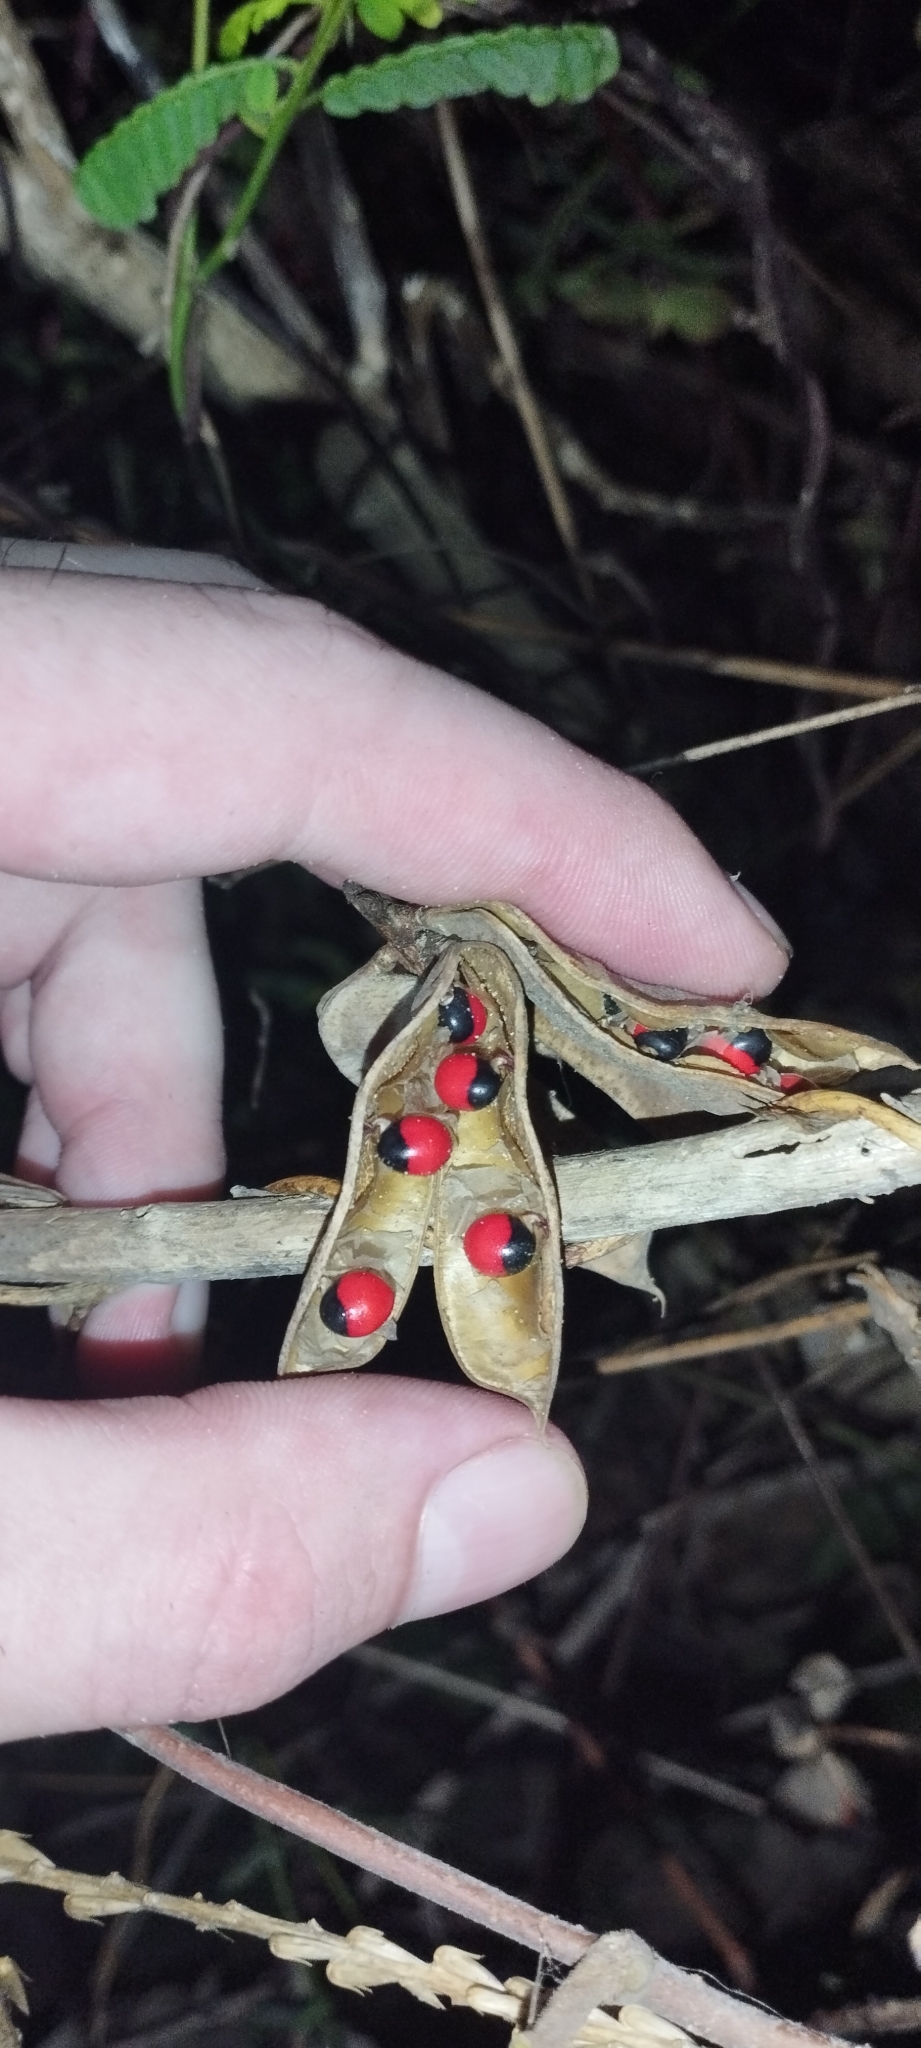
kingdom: Plantae
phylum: Tracheophyta
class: Magnoliopsida
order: Fabales
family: Fabaceae
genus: Abrus
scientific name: Abrus precatorius
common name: Rosarypea
